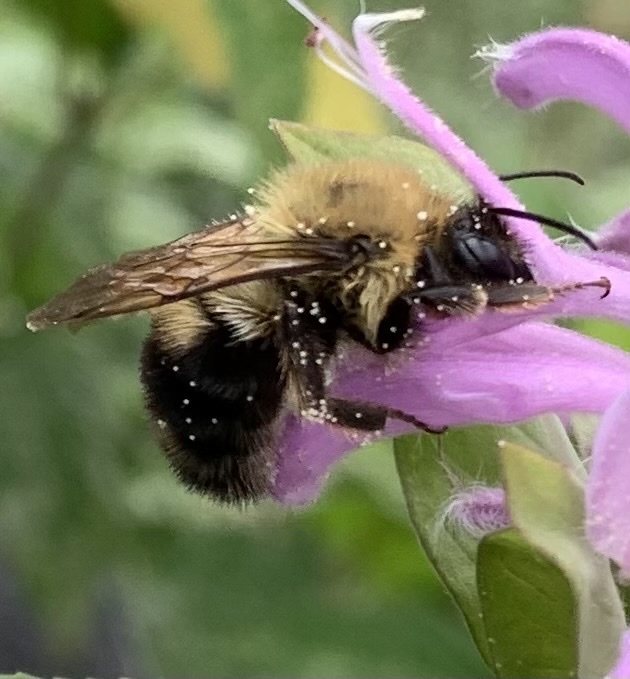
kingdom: Animalia
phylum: Arthropoda
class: Insecta
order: Hymenoptera
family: Apidae
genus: Bombus
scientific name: Bombus bimaculatus
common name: Two-spotted bumble bee
